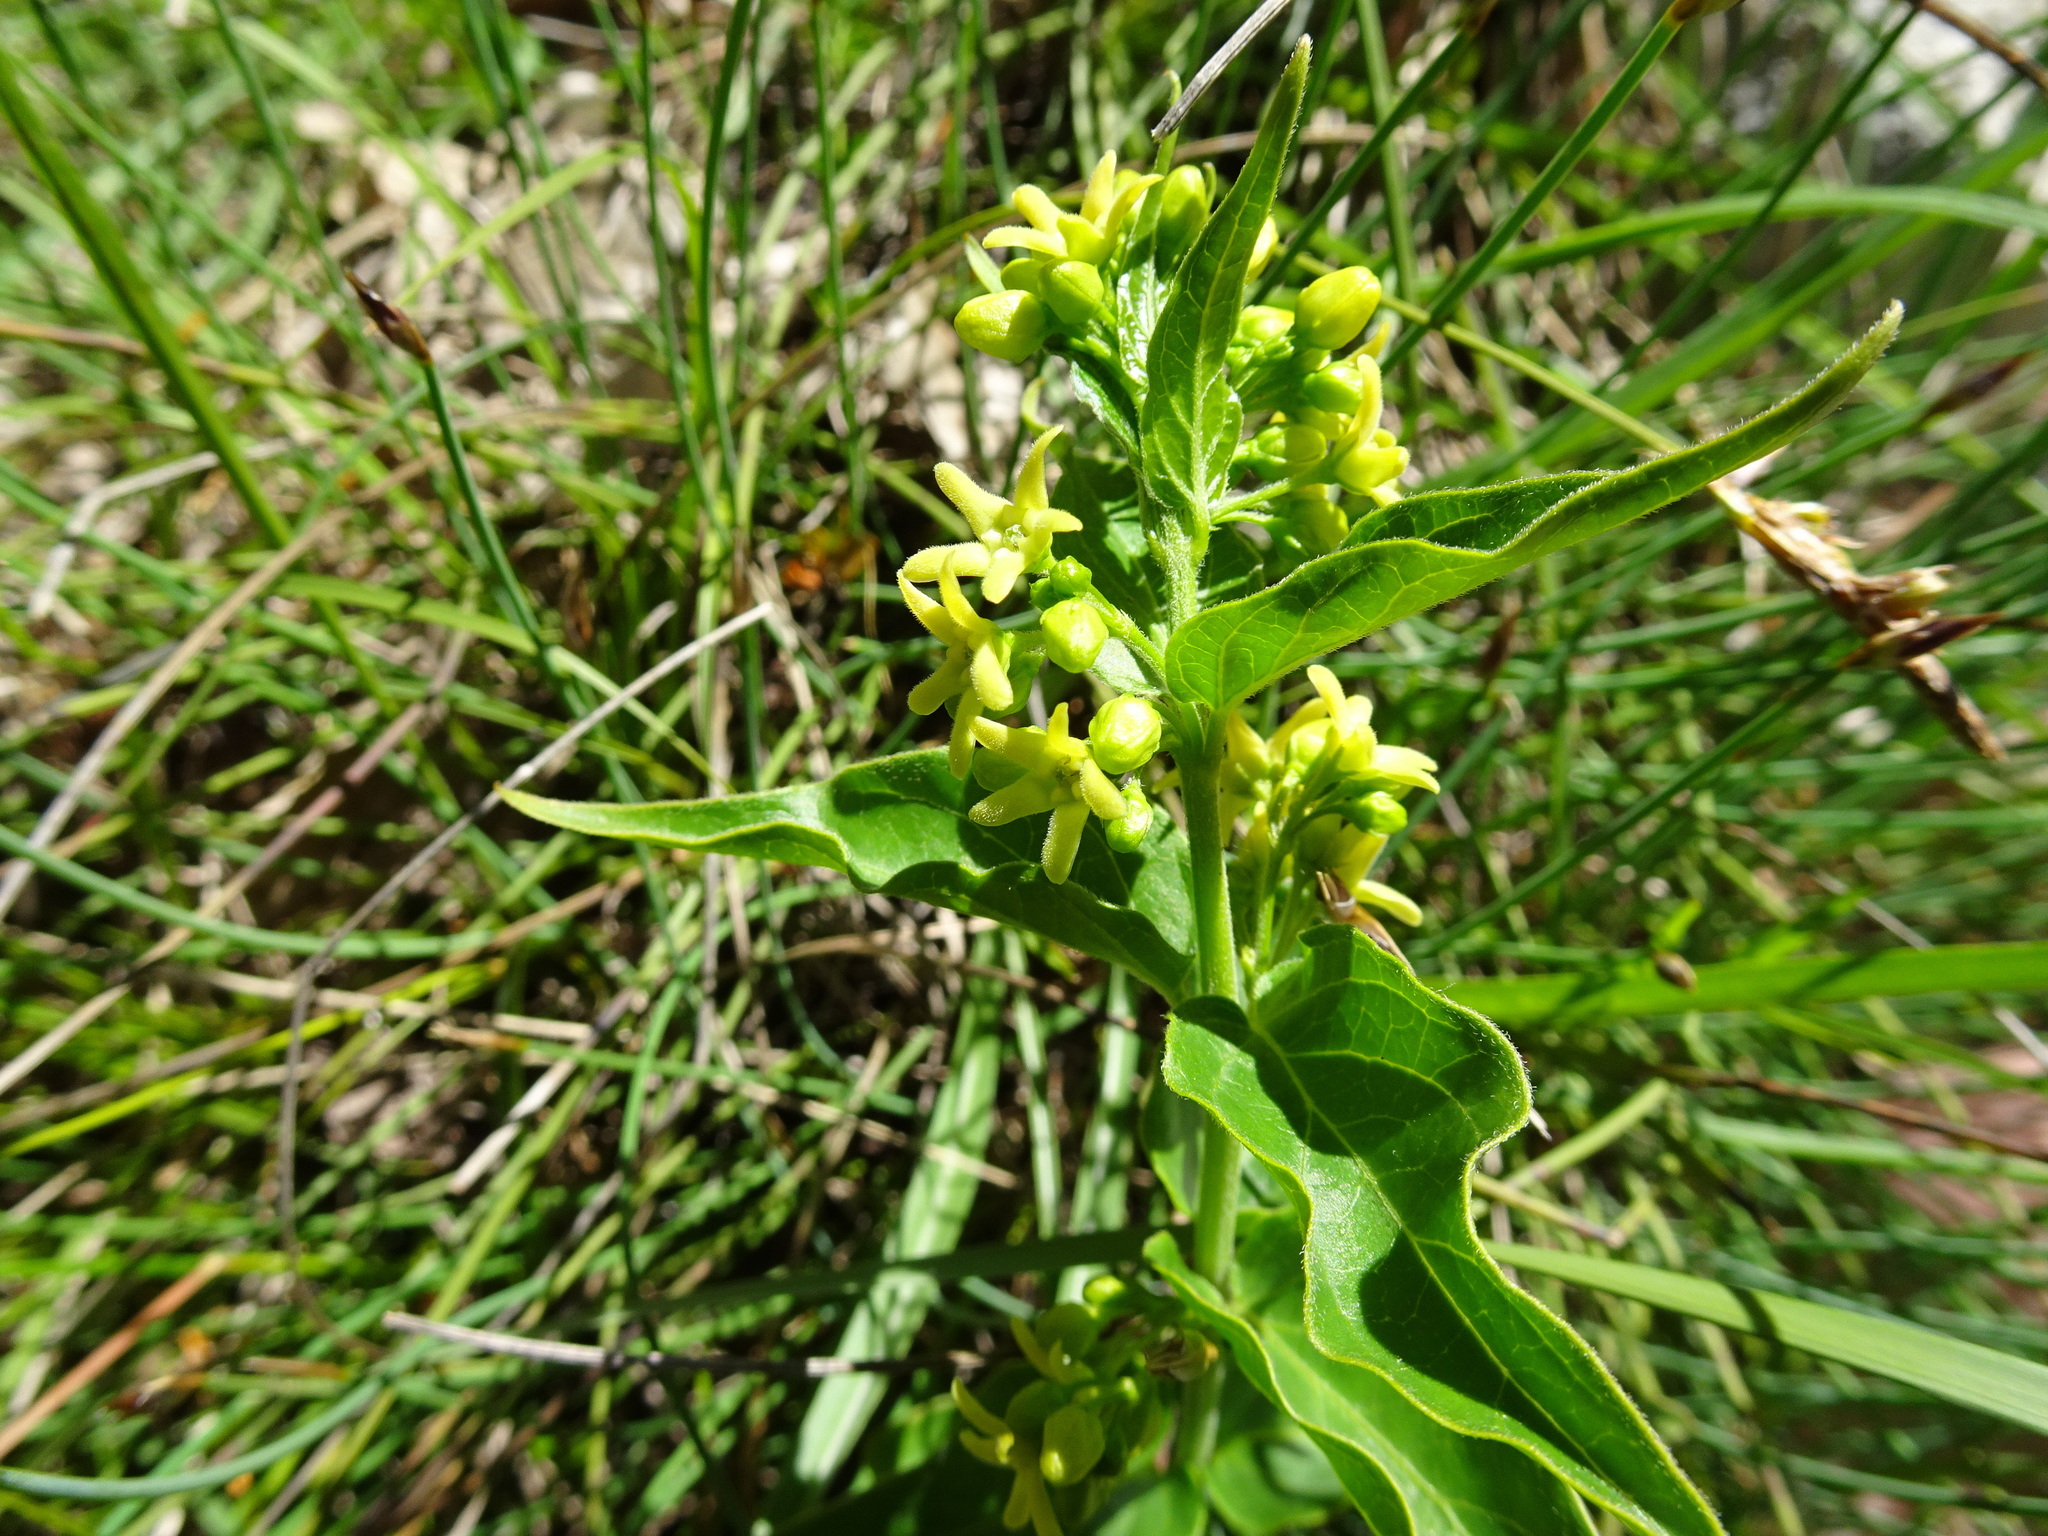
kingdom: Plantae
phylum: Tracheophyta
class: Magnoliopsida
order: Gentianales
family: Apocynaceae
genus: Vincetoxicum
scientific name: Vincetoxicum hirundinaria
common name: White swallowwort
